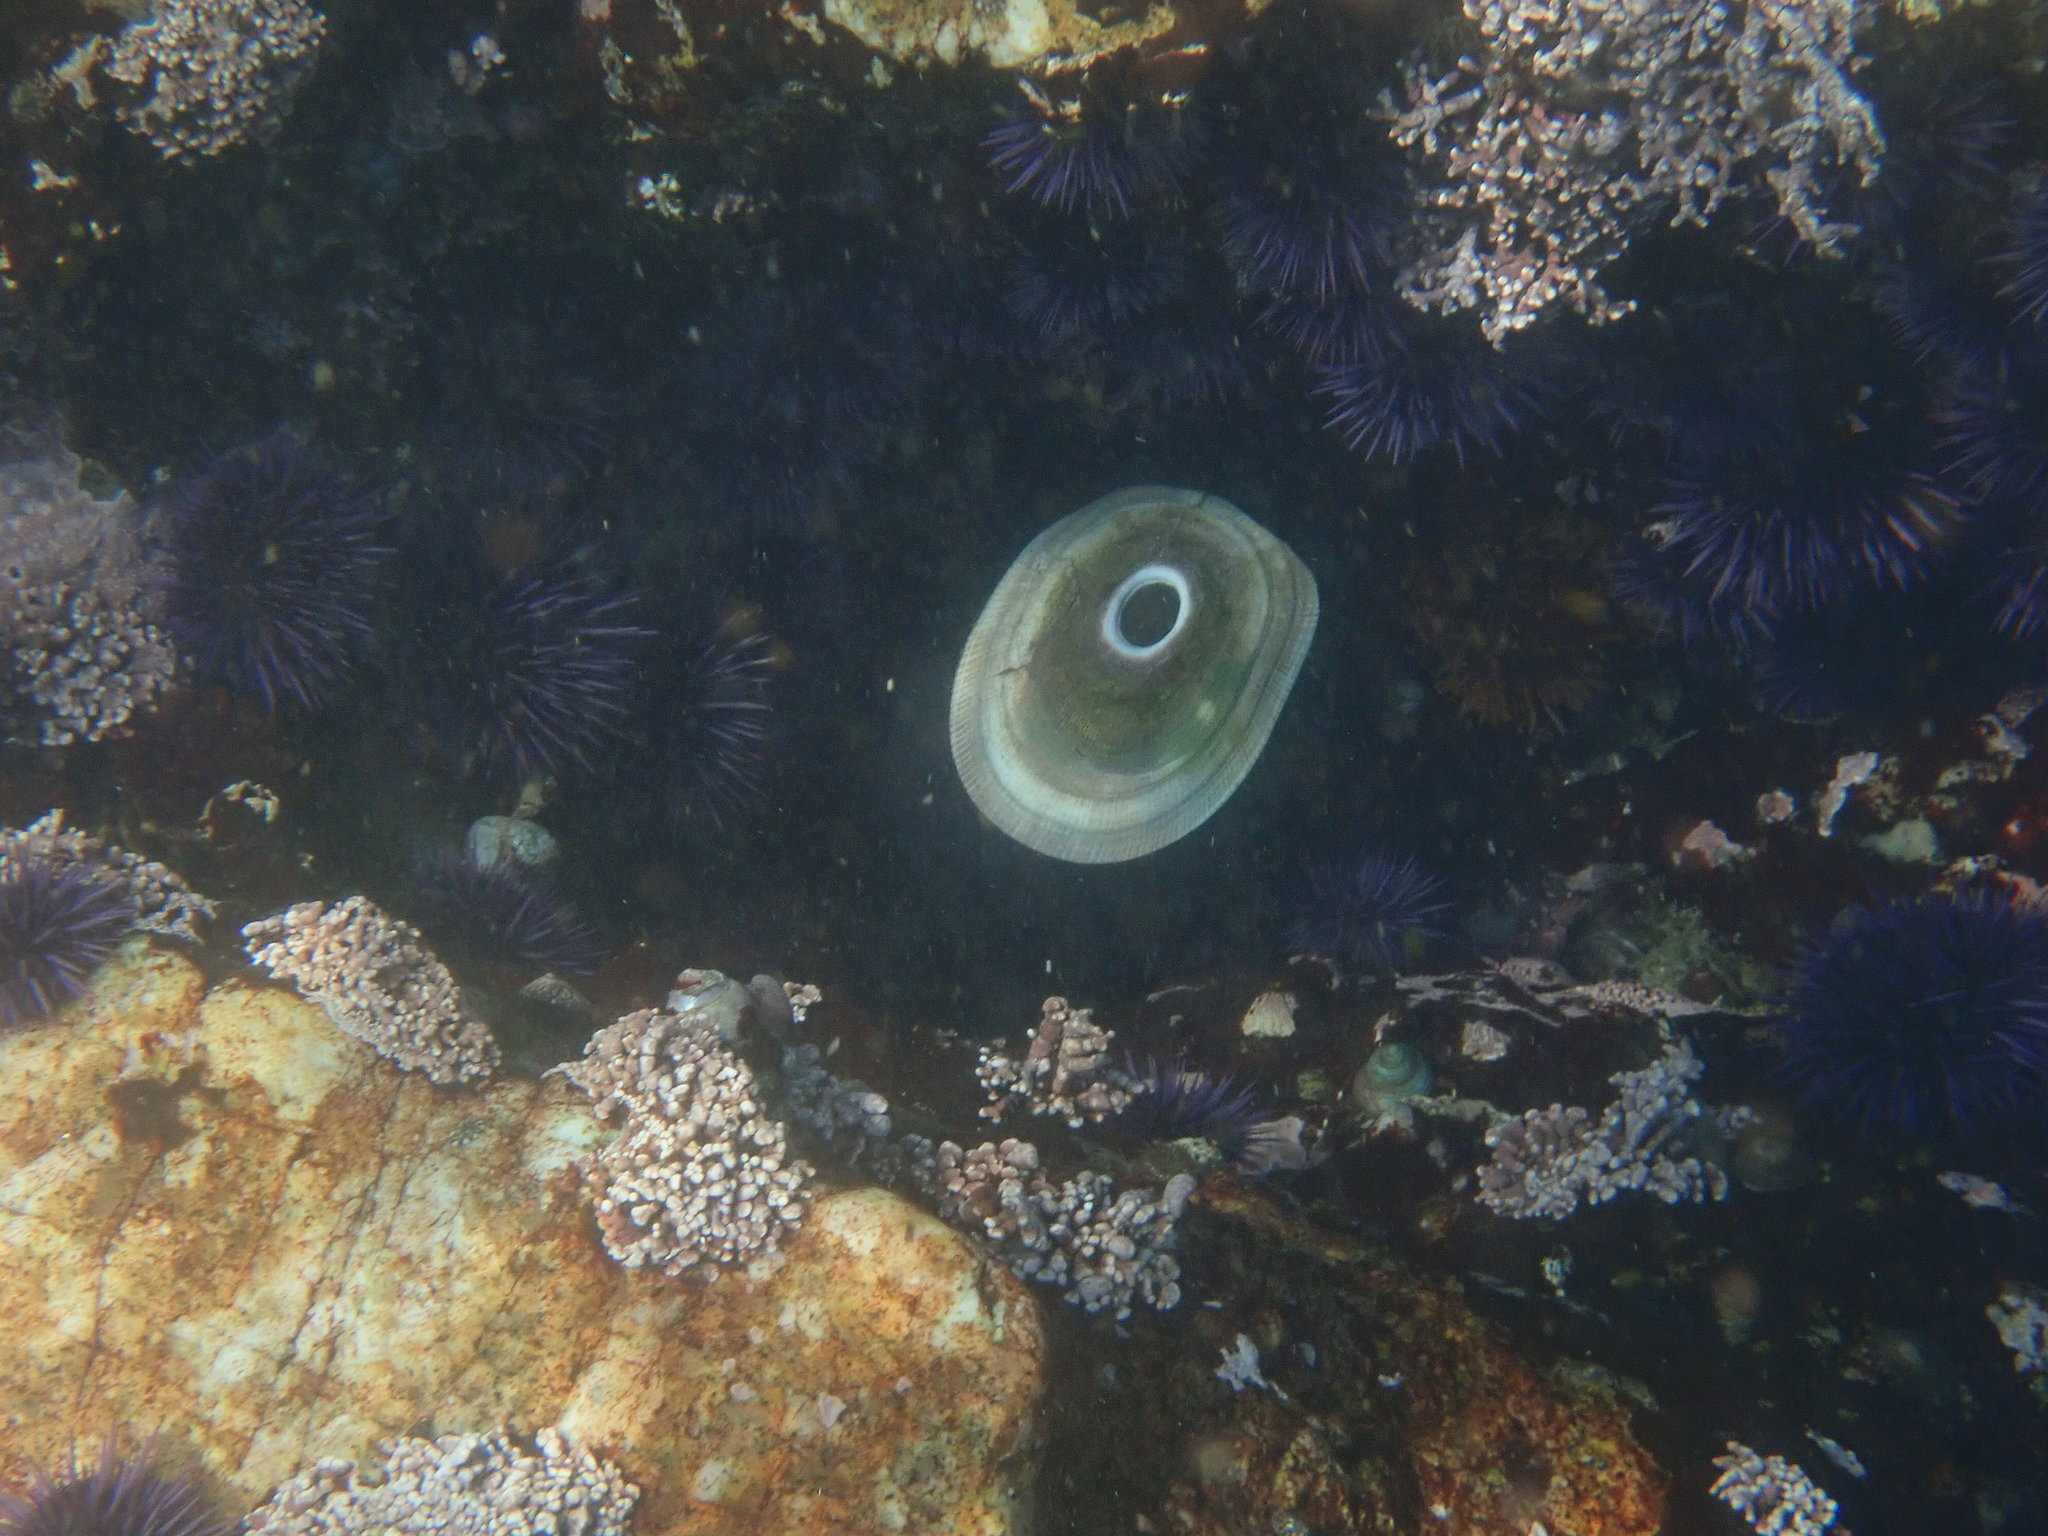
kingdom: Animalia
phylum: Mollusca
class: Gastropoda
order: Lepetellida
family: Fissurellidae
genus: Megathura
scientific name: Megathura crenulata
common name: Giant keyhole limpet
